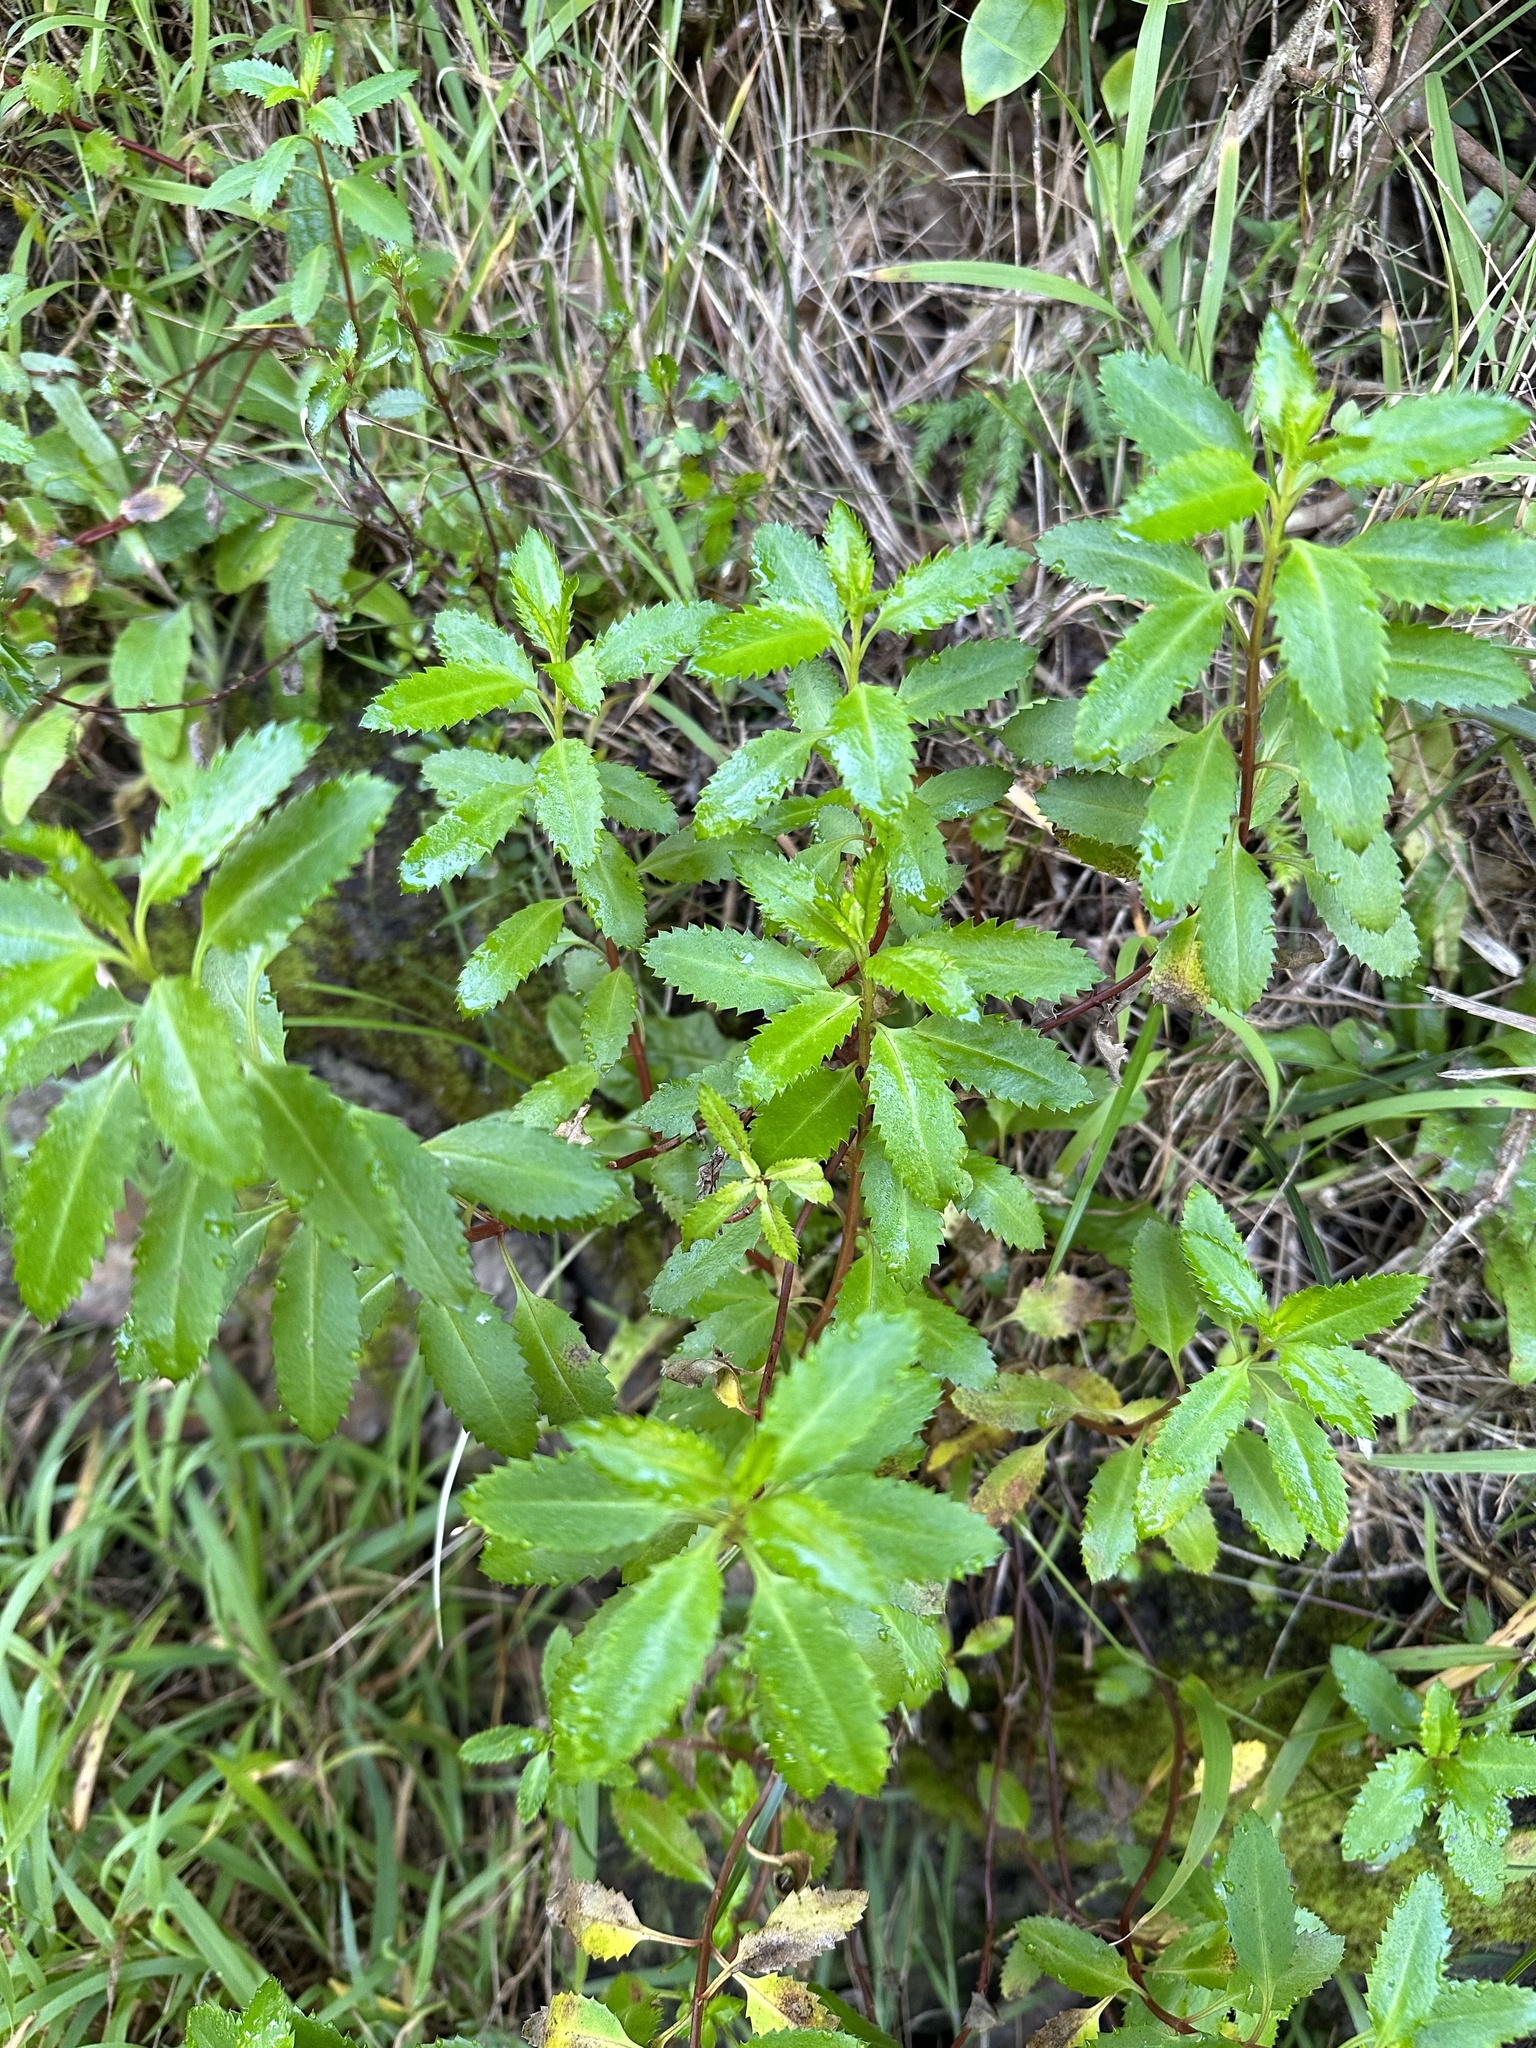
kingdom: Plantae
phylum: Tracheophyta
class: Magnoliopsida
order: Saxifragales
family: Haloragaceae
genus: Haloragis
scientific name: Haloragis erecta
